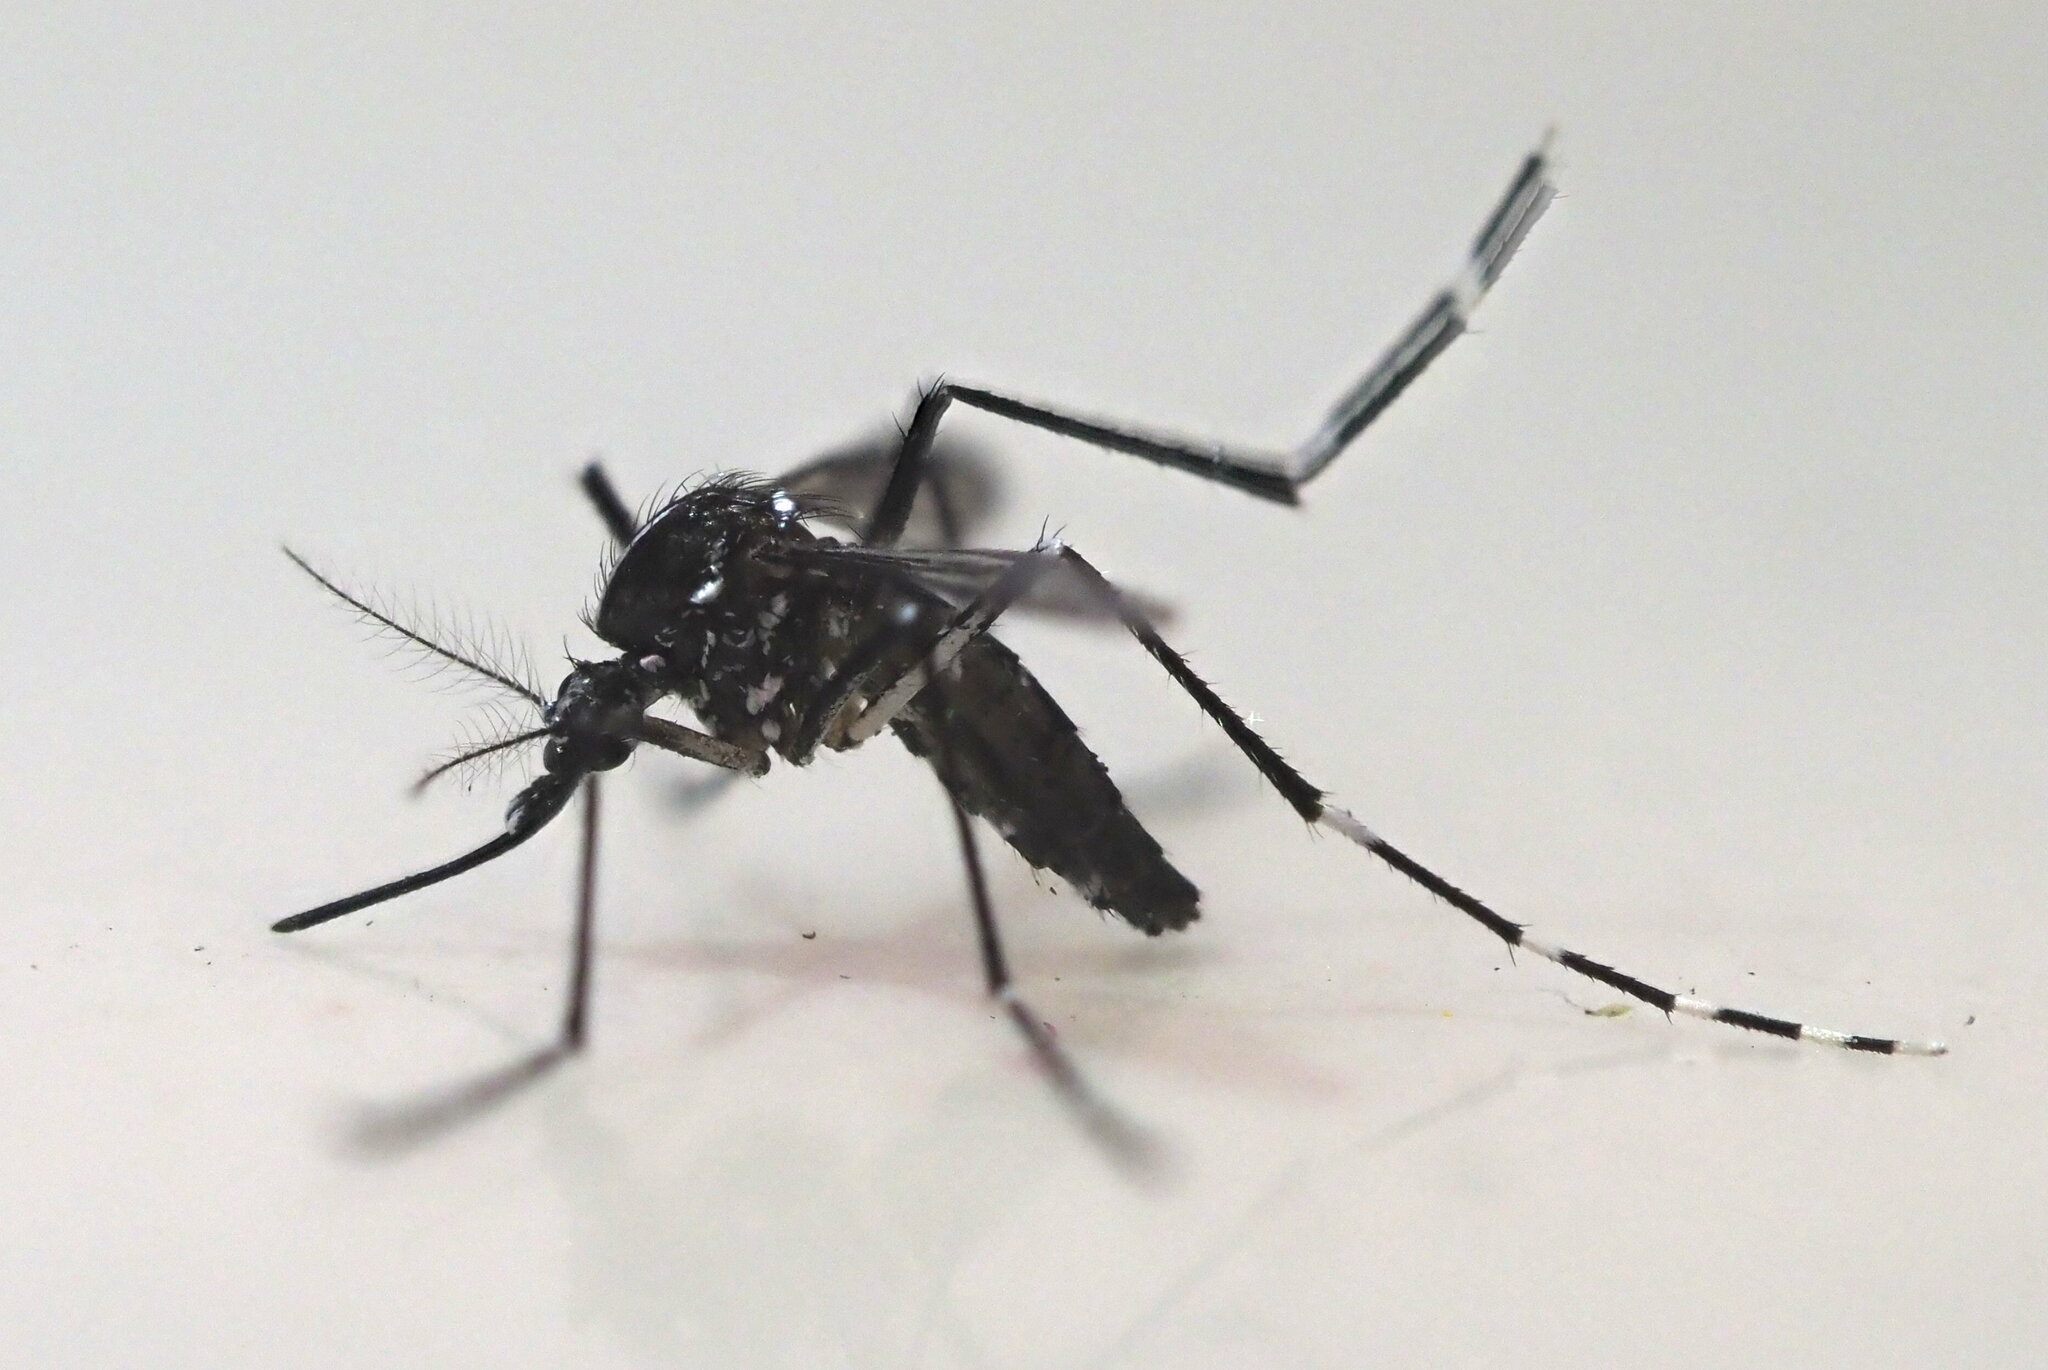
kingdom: Animalia
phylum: Arthropoda
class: Insecta
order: Diptera
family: Culicidae
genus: Aedes
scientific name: Aedes albopictus
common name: Tiger mosquito
